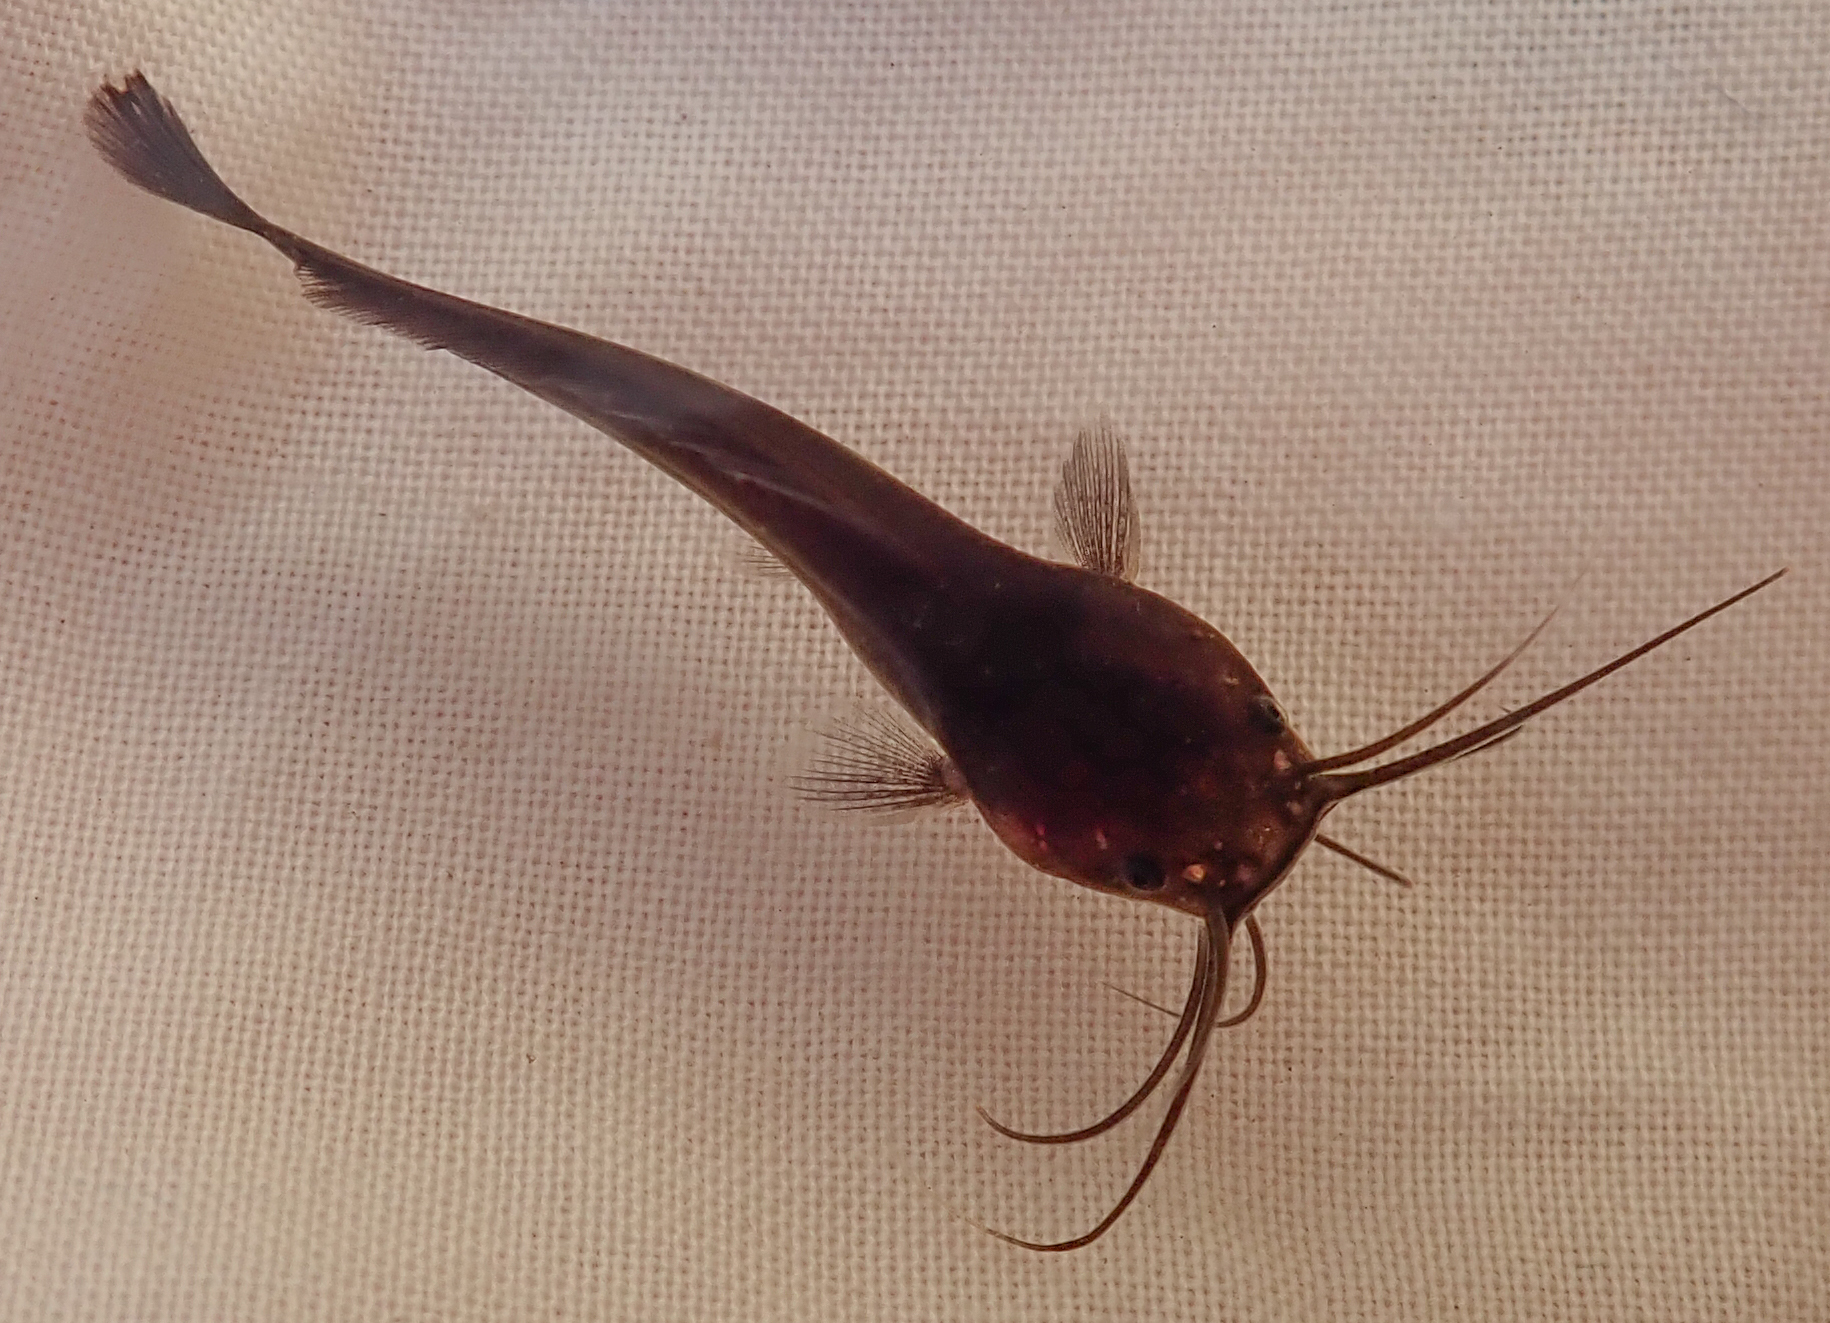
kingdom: Animalia
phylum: Chordata
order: Siluriformes
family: Clariidae
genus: Clarias
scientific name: Clarias theodorae
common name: Snake catfish
